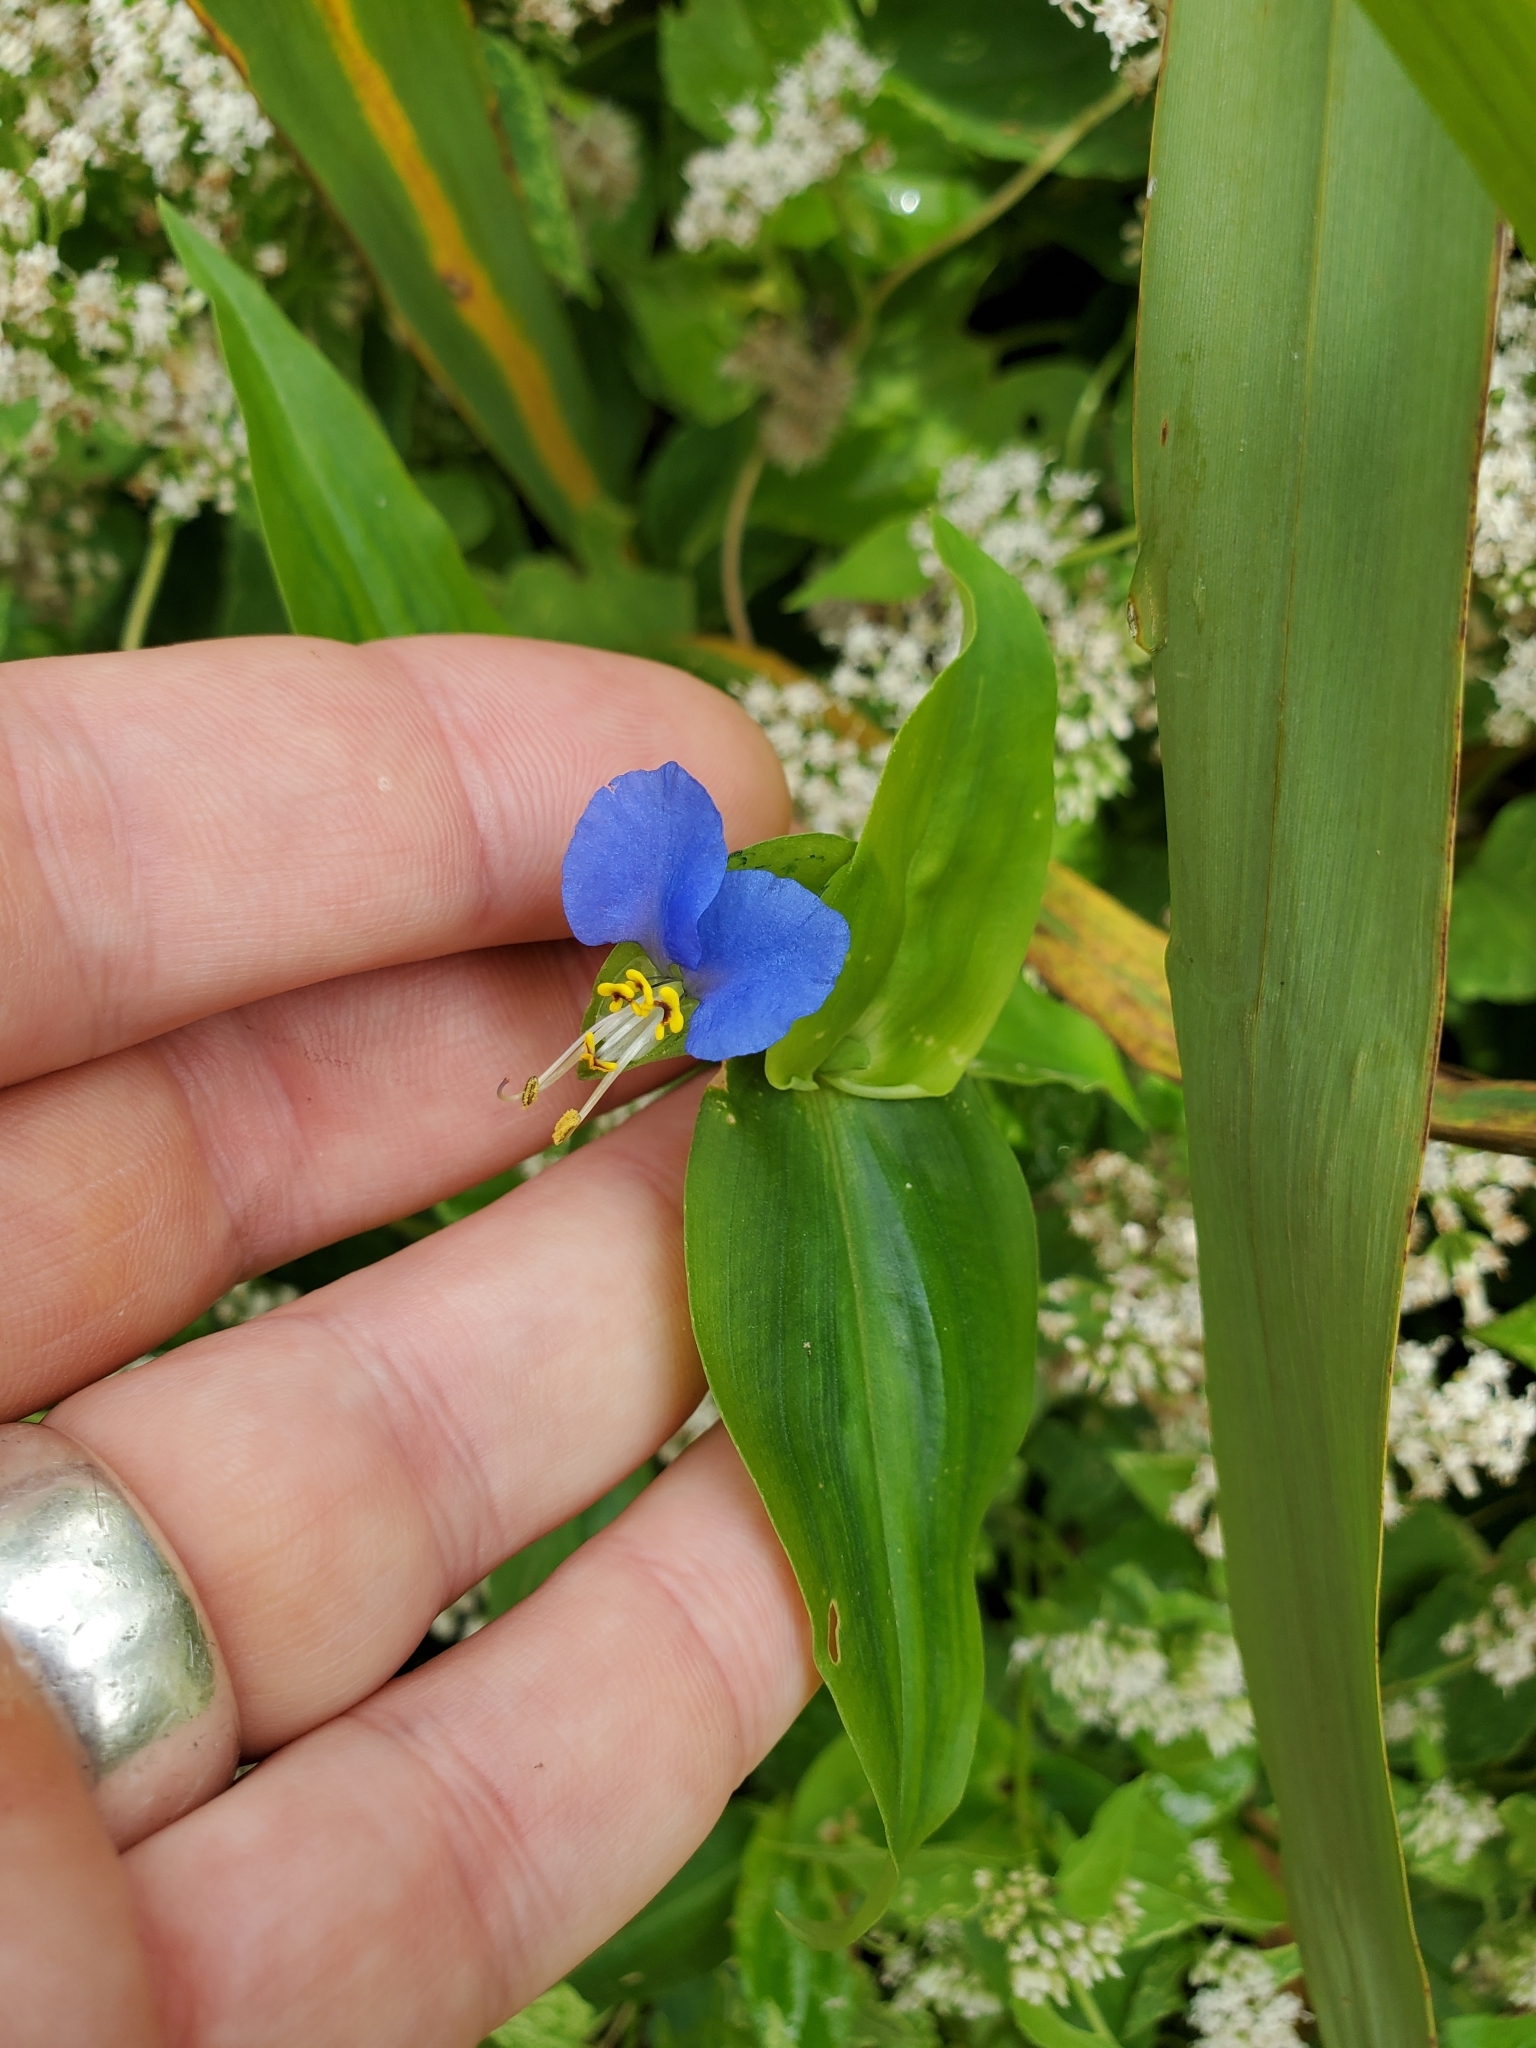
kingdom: Plantae
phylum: Tracheophyta
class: Liliopsida
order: Commelinales
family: Commelinaceae
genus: Commelina
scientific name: Commelina communis
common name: Asiatic dayflower
